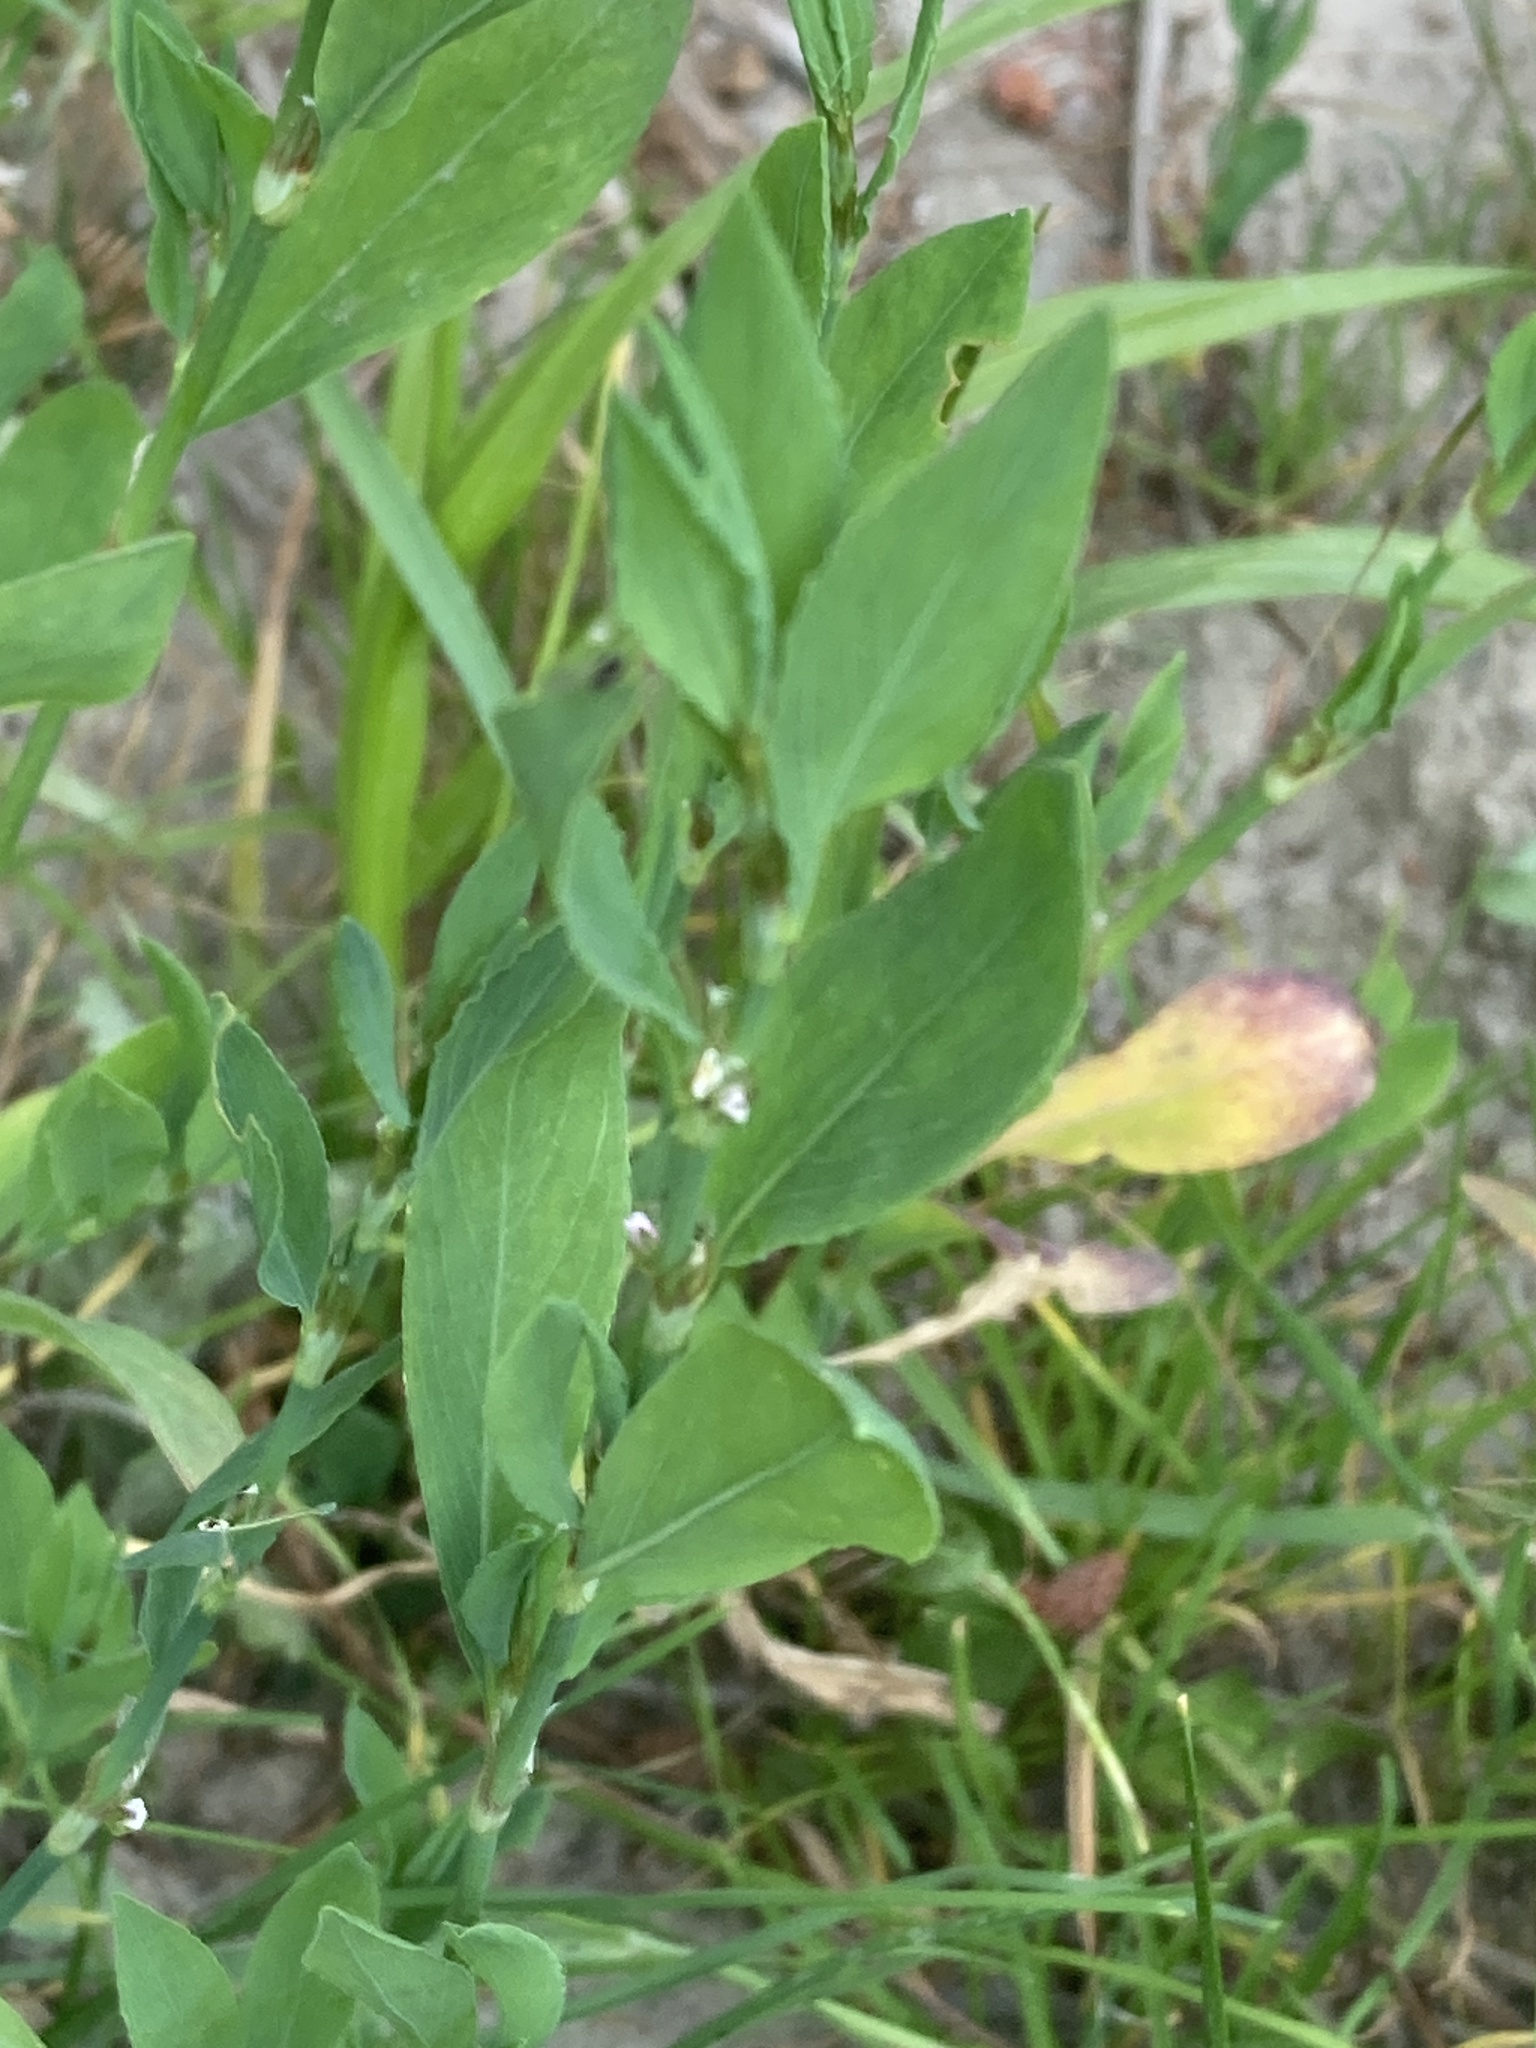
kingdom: Plantae
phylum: Tracheophyta
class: Magnoliopsida
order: Caryophyllales
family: Polygonaceae
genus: Polygonum
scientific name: Polygonum
